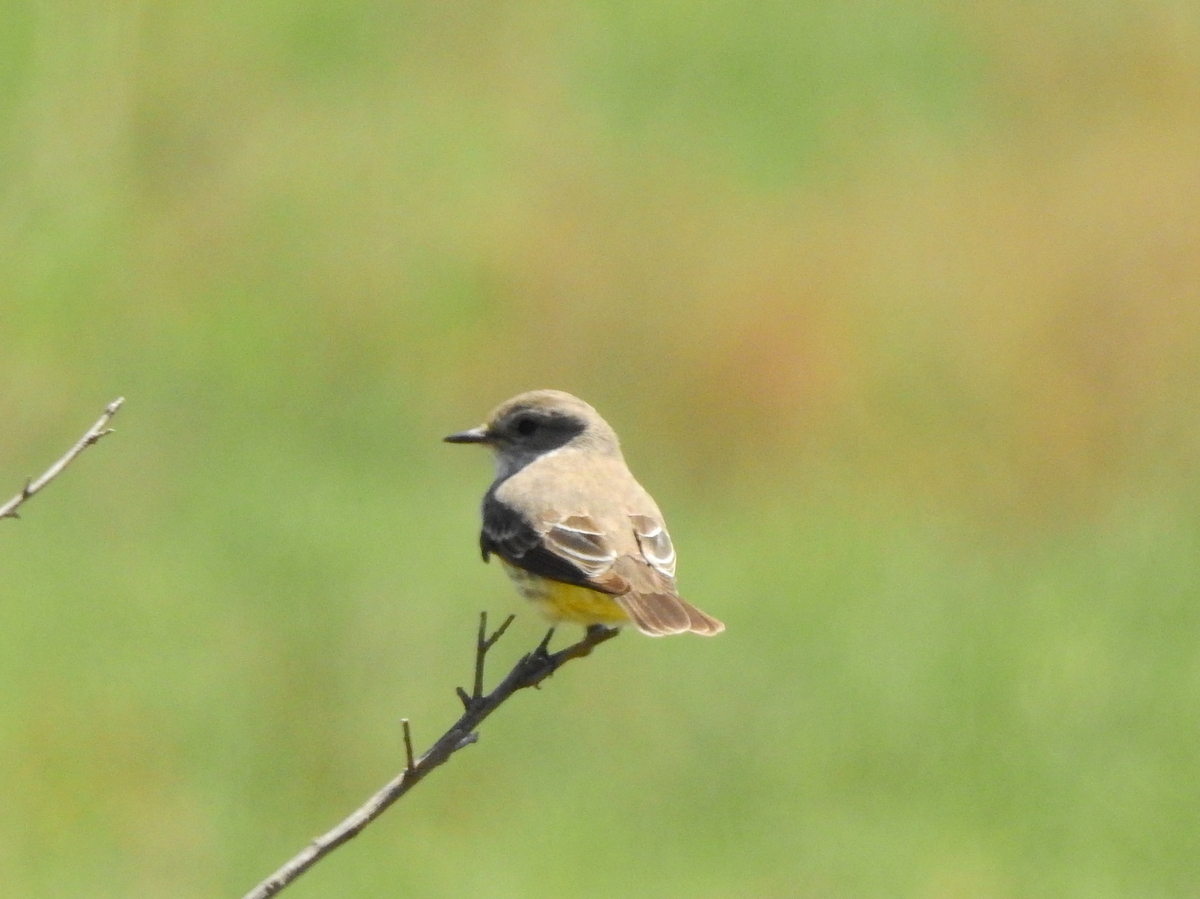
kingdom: Animalia
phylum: Chordata
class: Aves
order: Passeriformes
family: Tyrannidae
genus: Pyrocephalus
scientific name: Pyrocephalus rubinus
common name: Vermilion flycatcher
